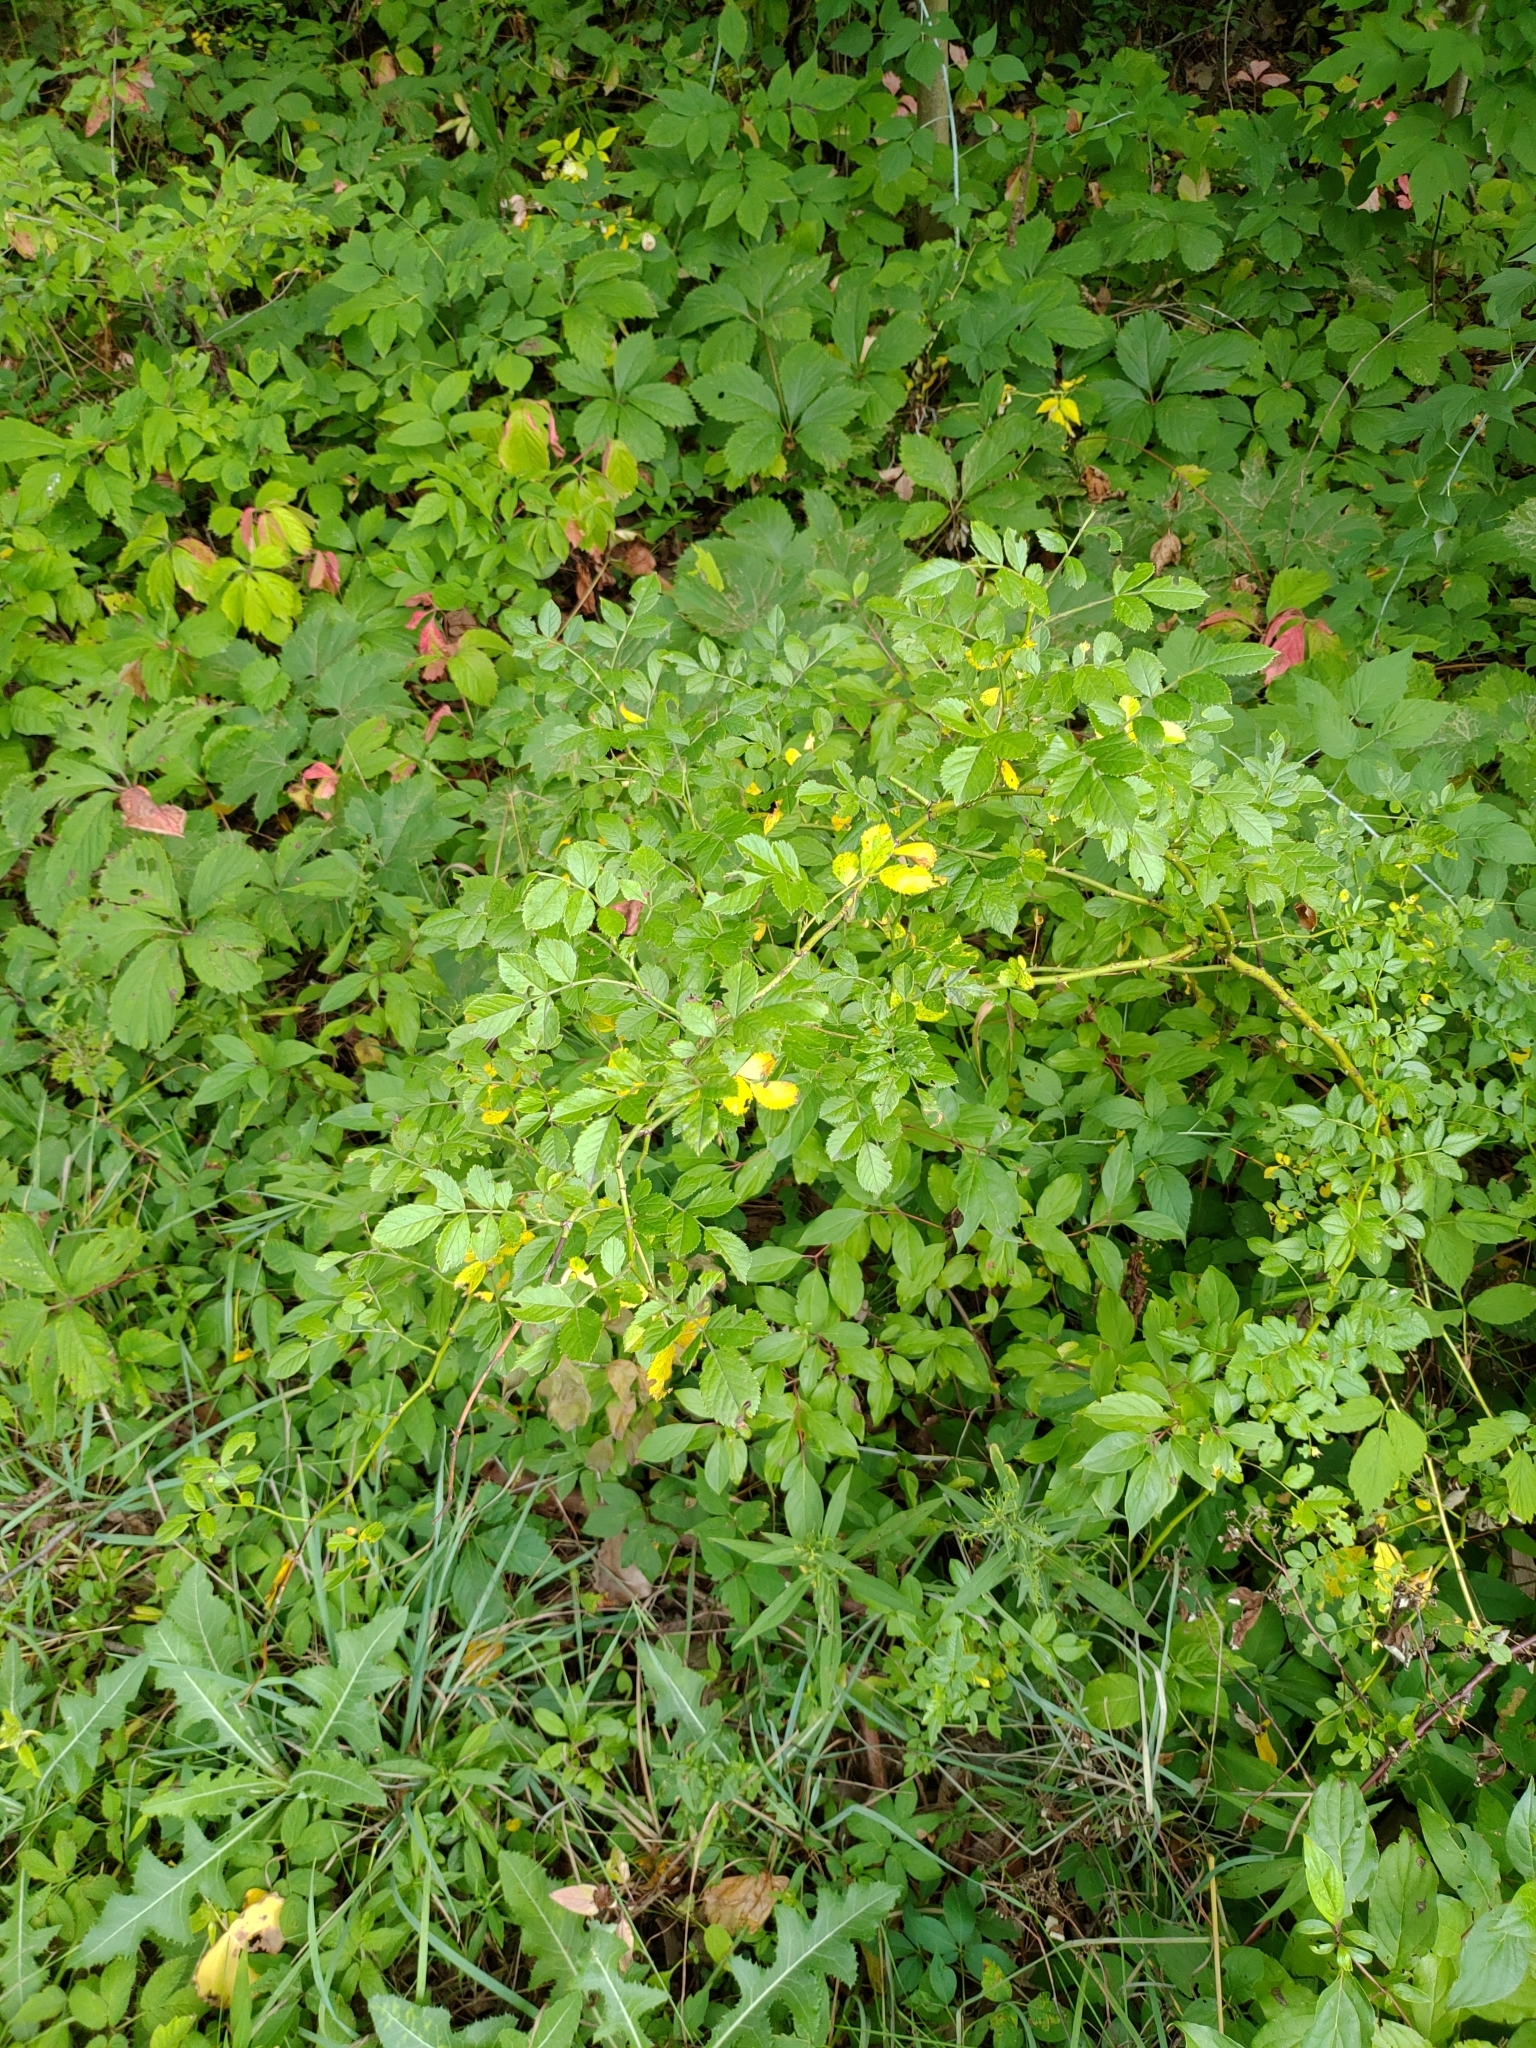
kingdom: Plantae
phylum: Tracheophyta
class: Magnoliopsida
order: Rosales
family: Rosaceae
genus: Rosa
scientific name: Rosa multiflora
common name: Multiflora rose
